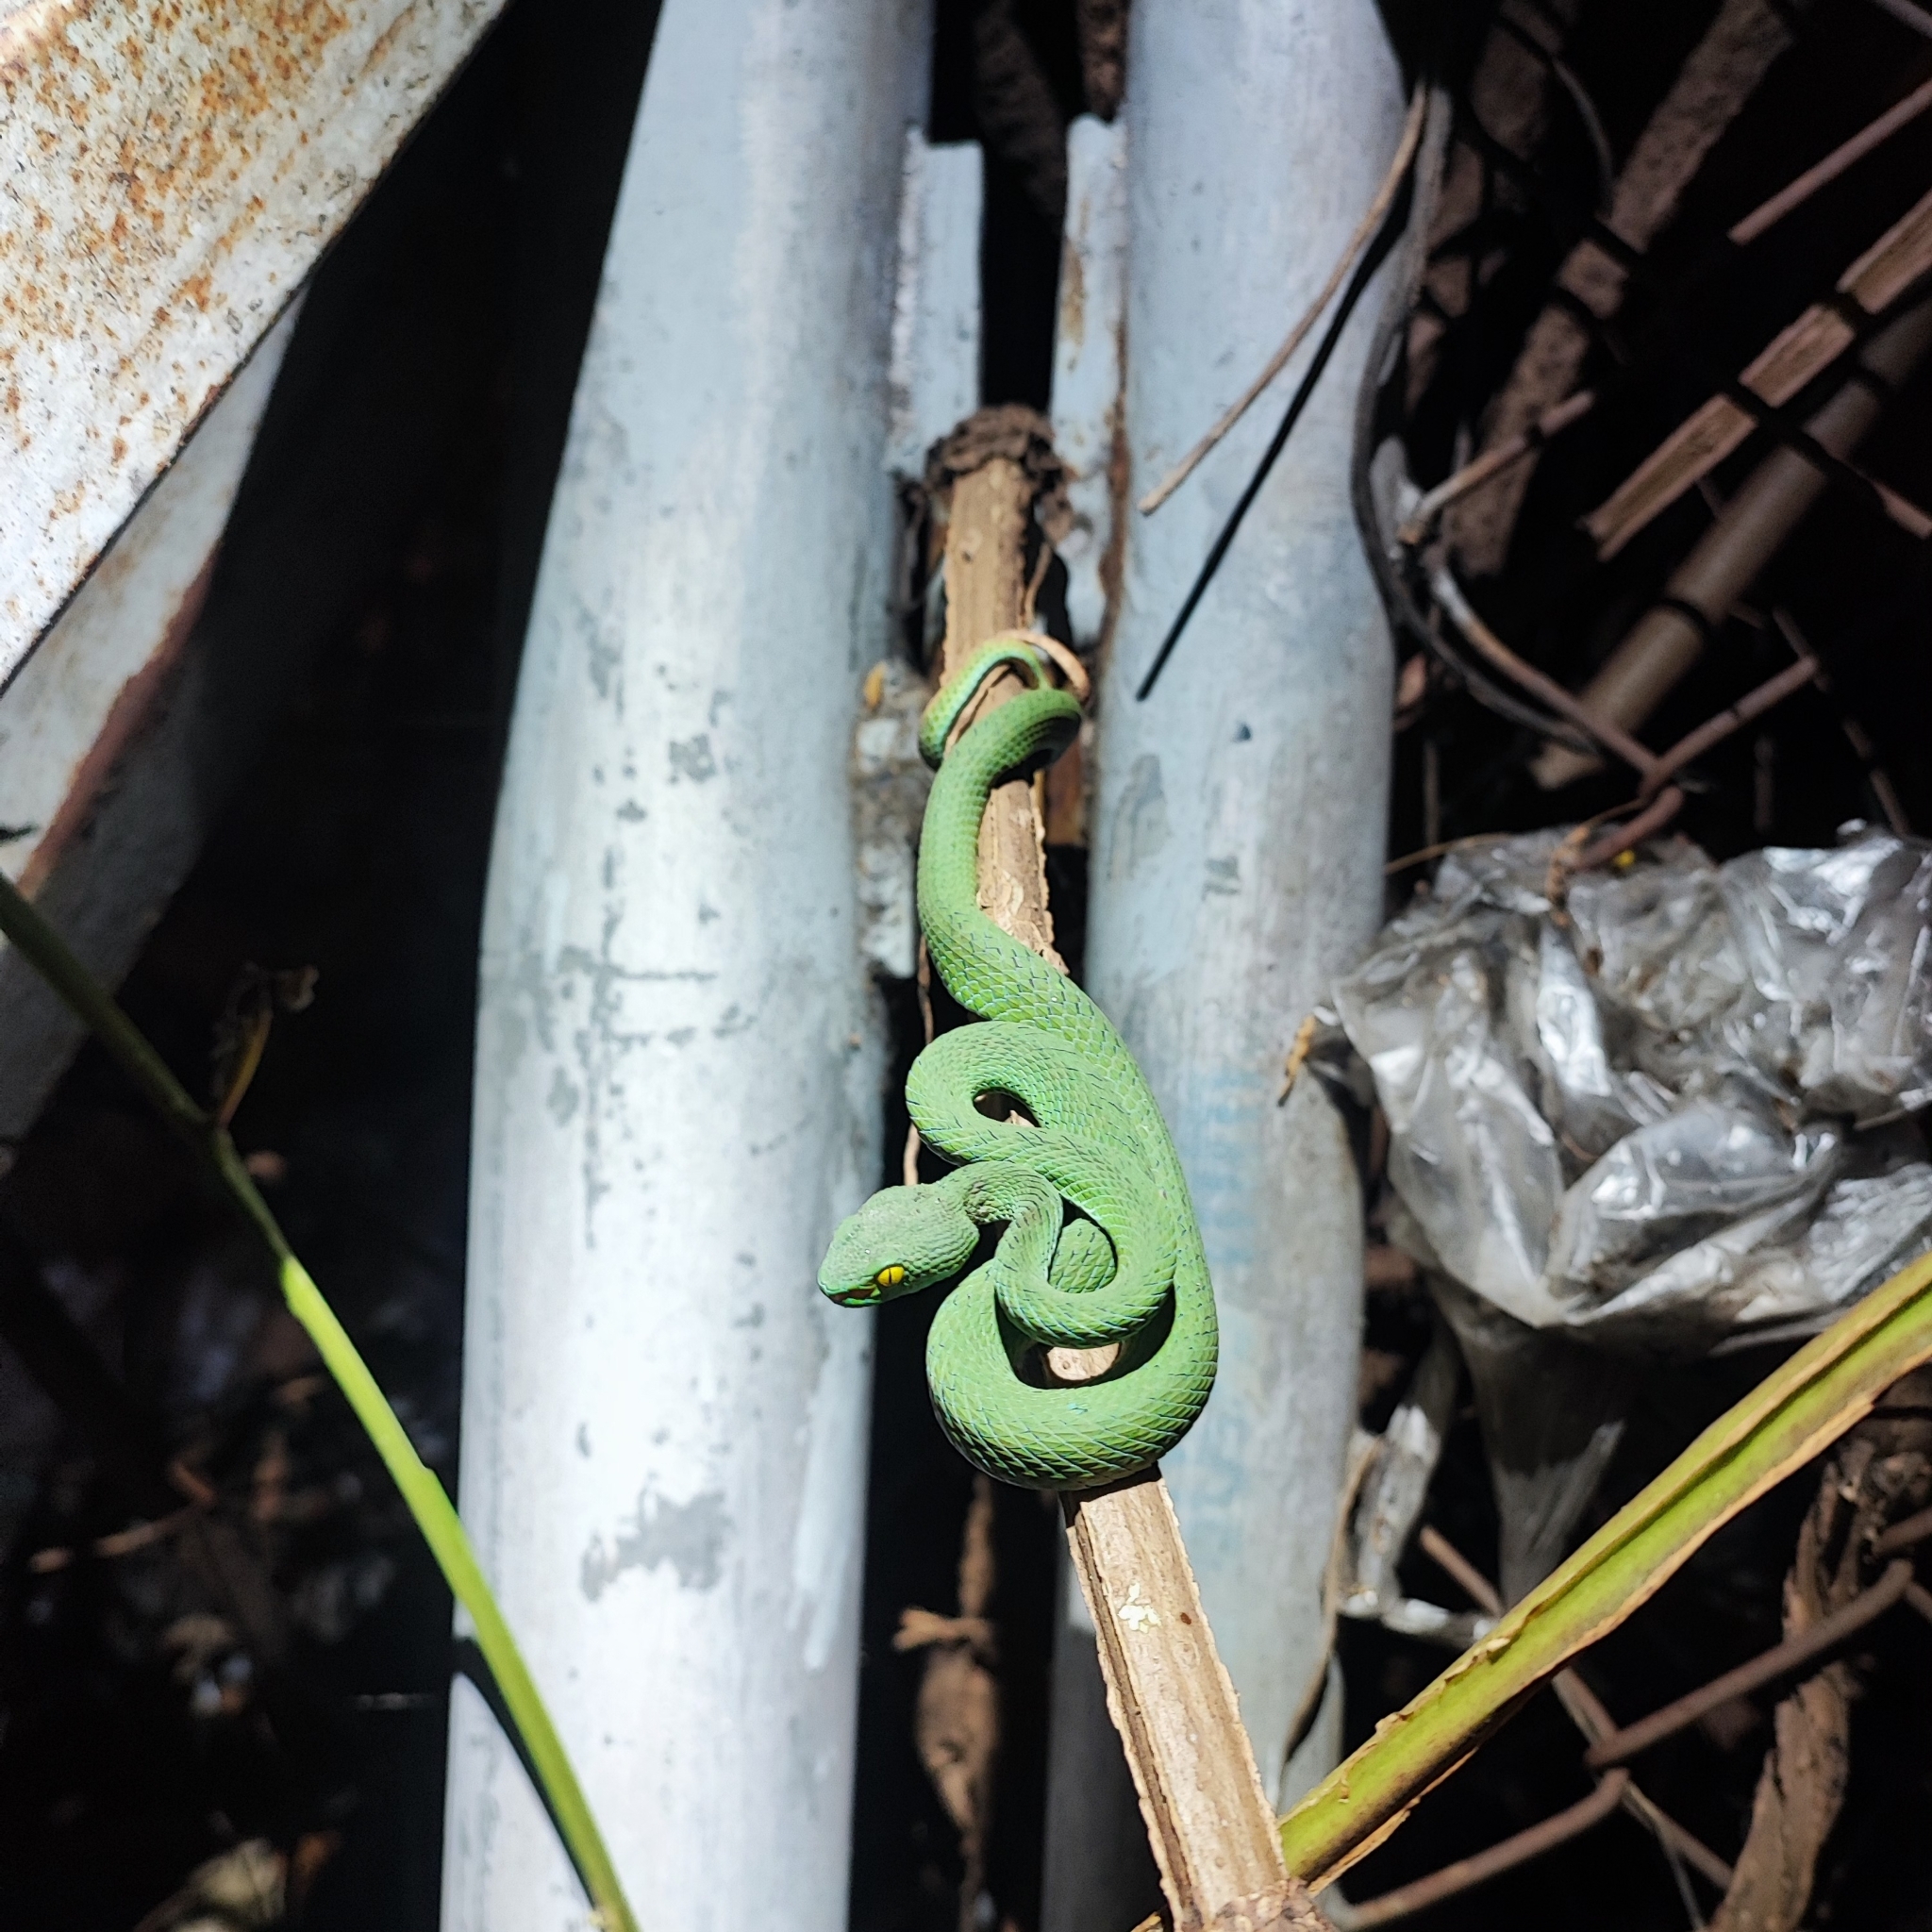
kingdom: Animalia
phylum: Chordata
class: Squamata
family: Viperidae
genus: Trimeresurus
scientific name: Trimeresurus macrops
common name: Kramer's pit viper
